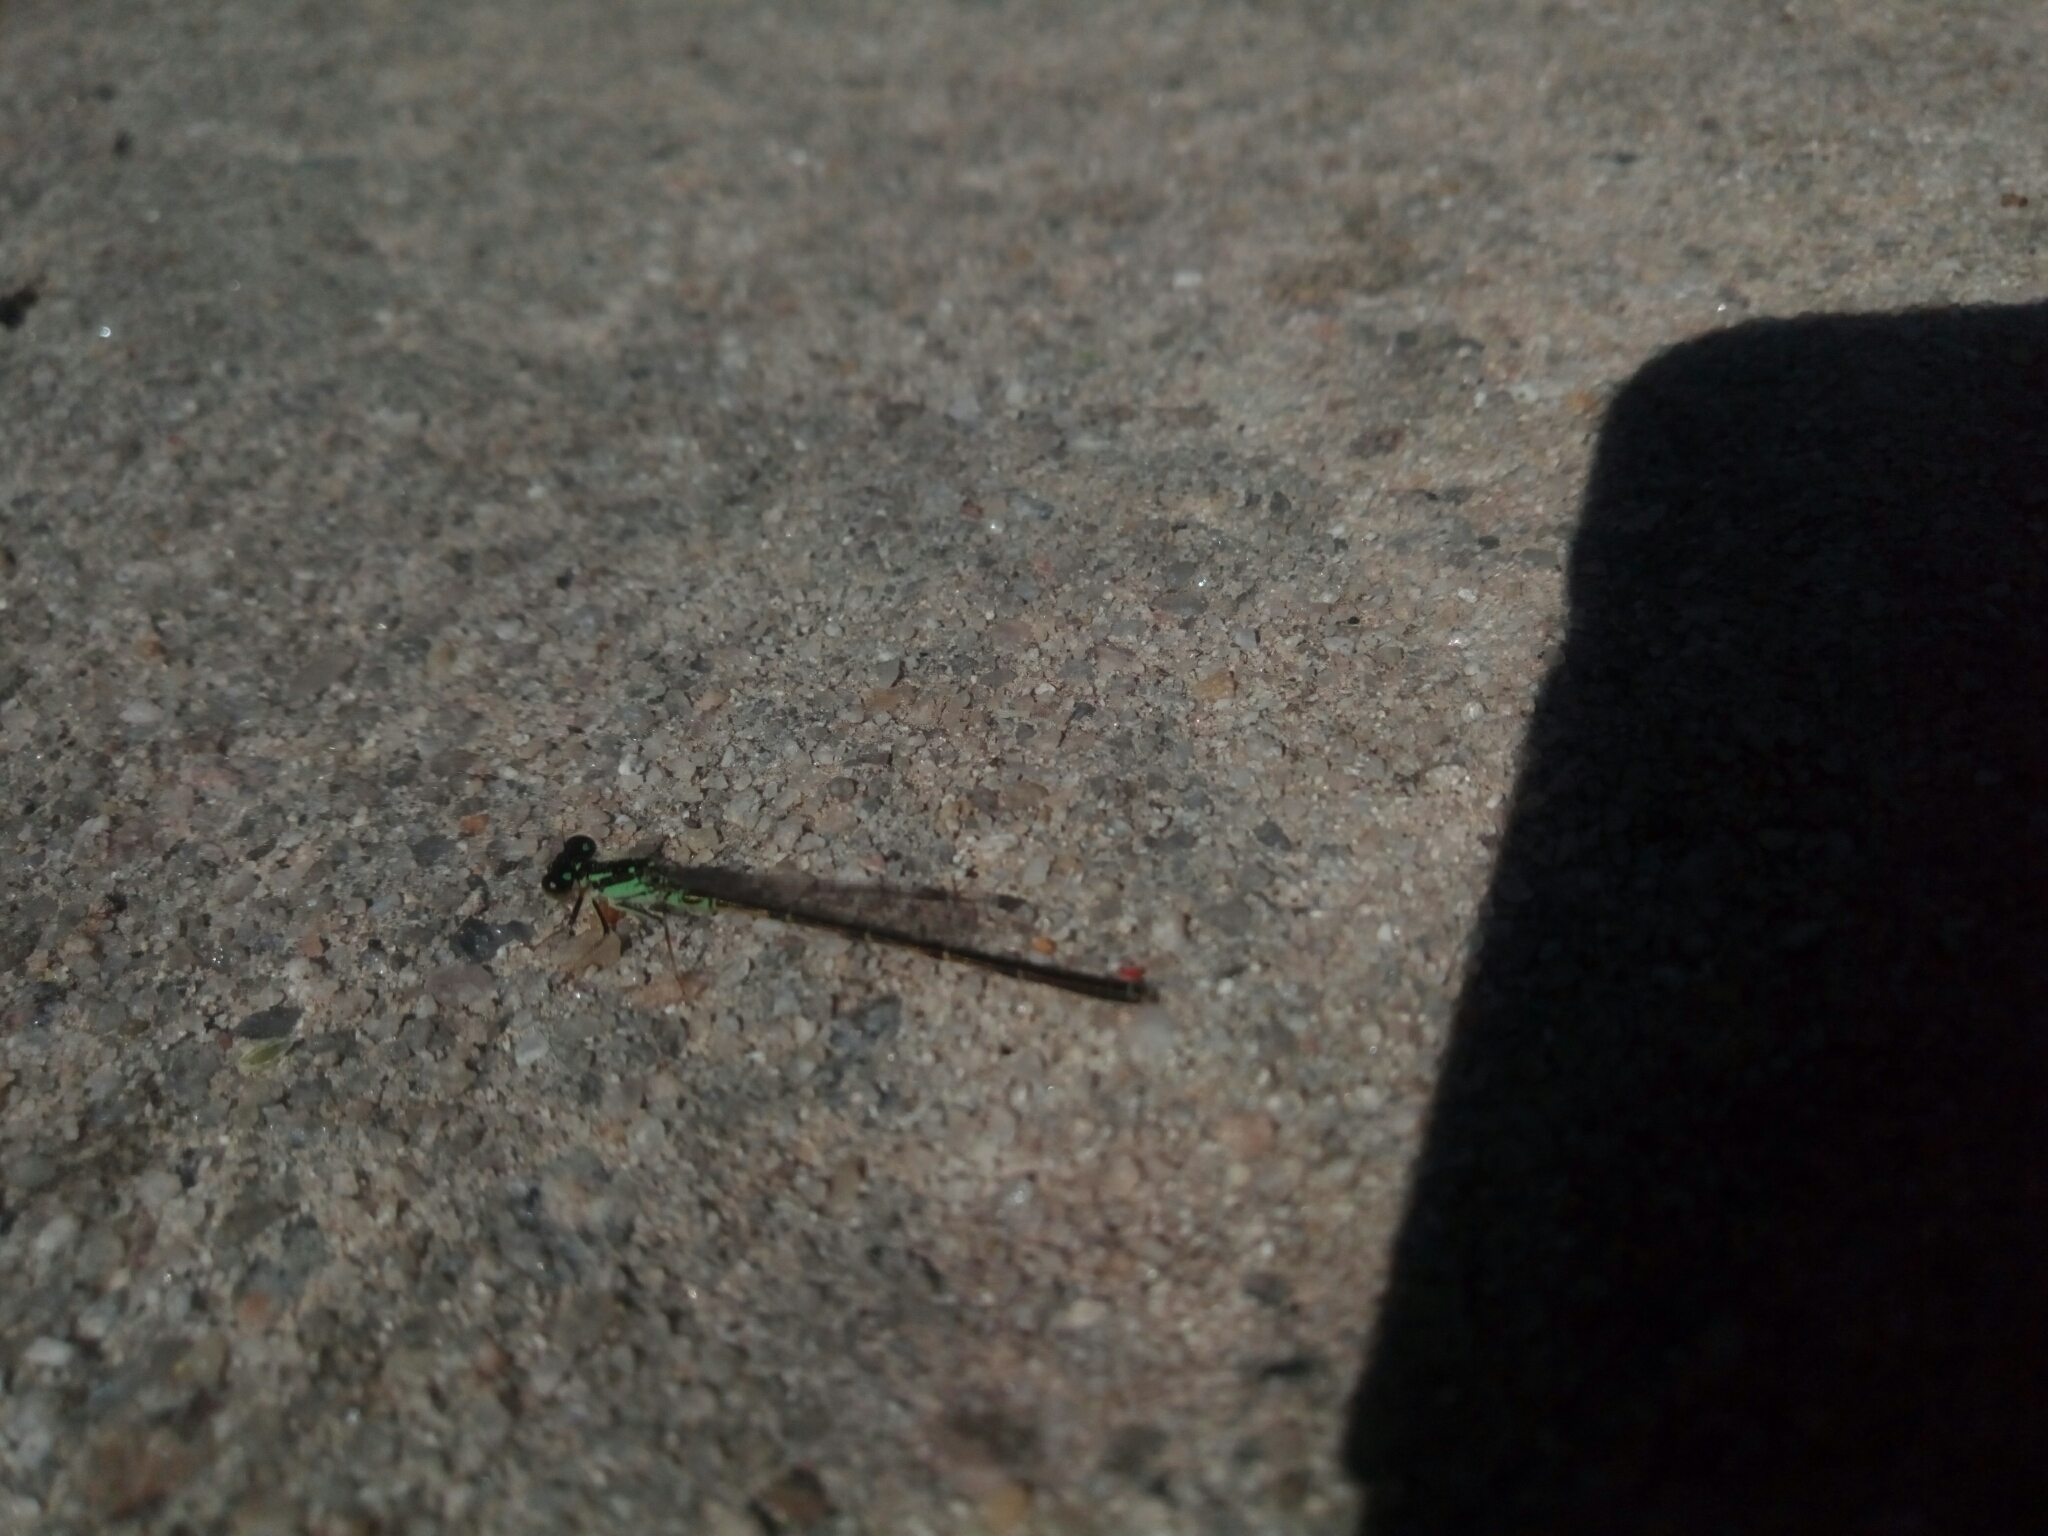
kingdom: Animalia
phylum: Arthropoda
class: Insecta
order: Odonata
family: Coenagrionidae
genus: Ischnura
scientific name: Ischnura posita
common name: Fragile forktail
